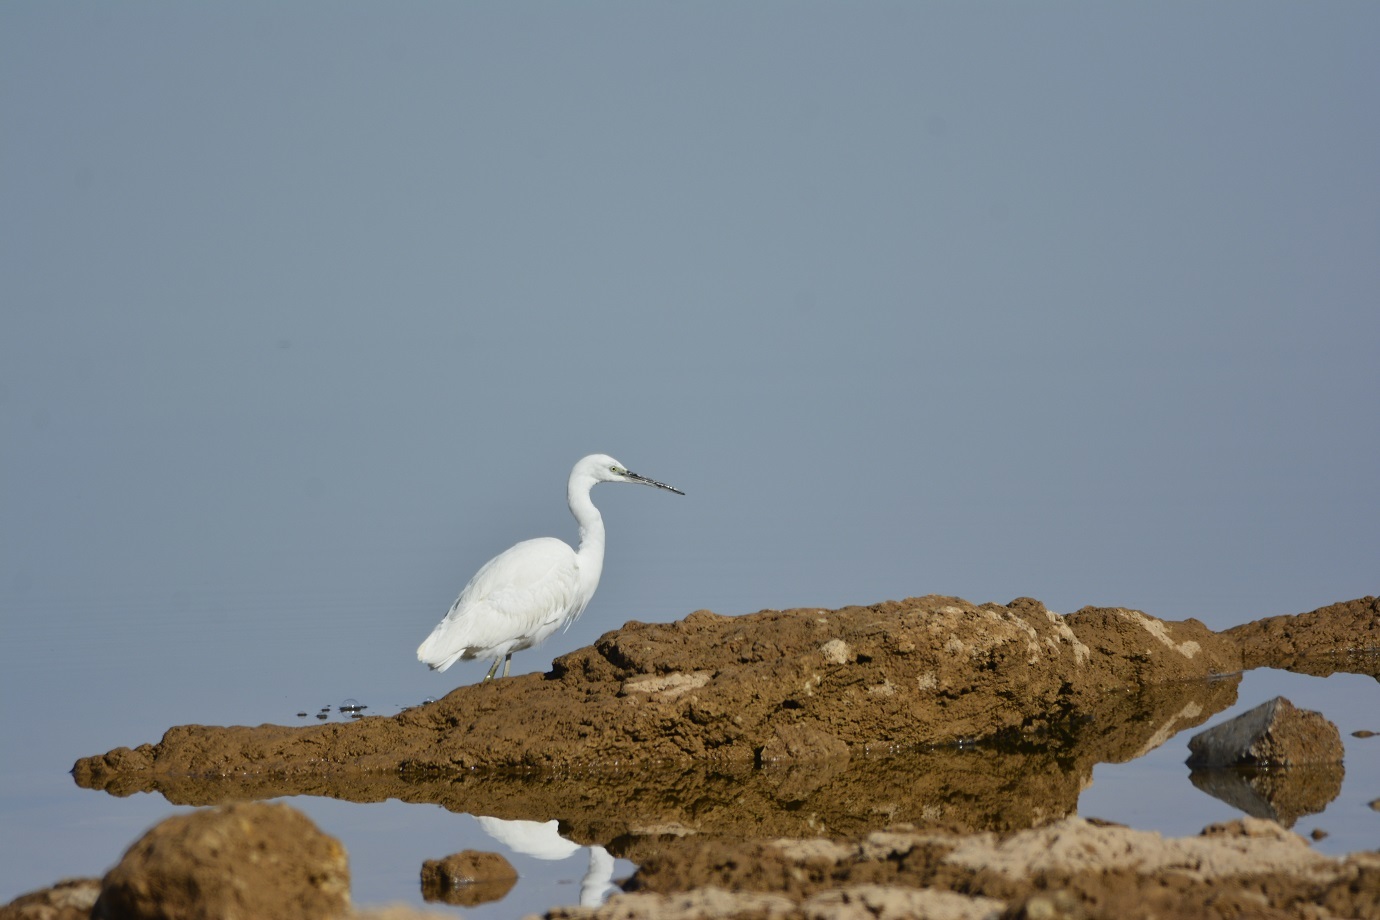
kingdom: Animalia
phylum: Chordata
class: Aves
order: Pelecaniformes
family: Ardeidae
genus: Egretta
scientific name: Egretta garzetta
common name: Little egret
